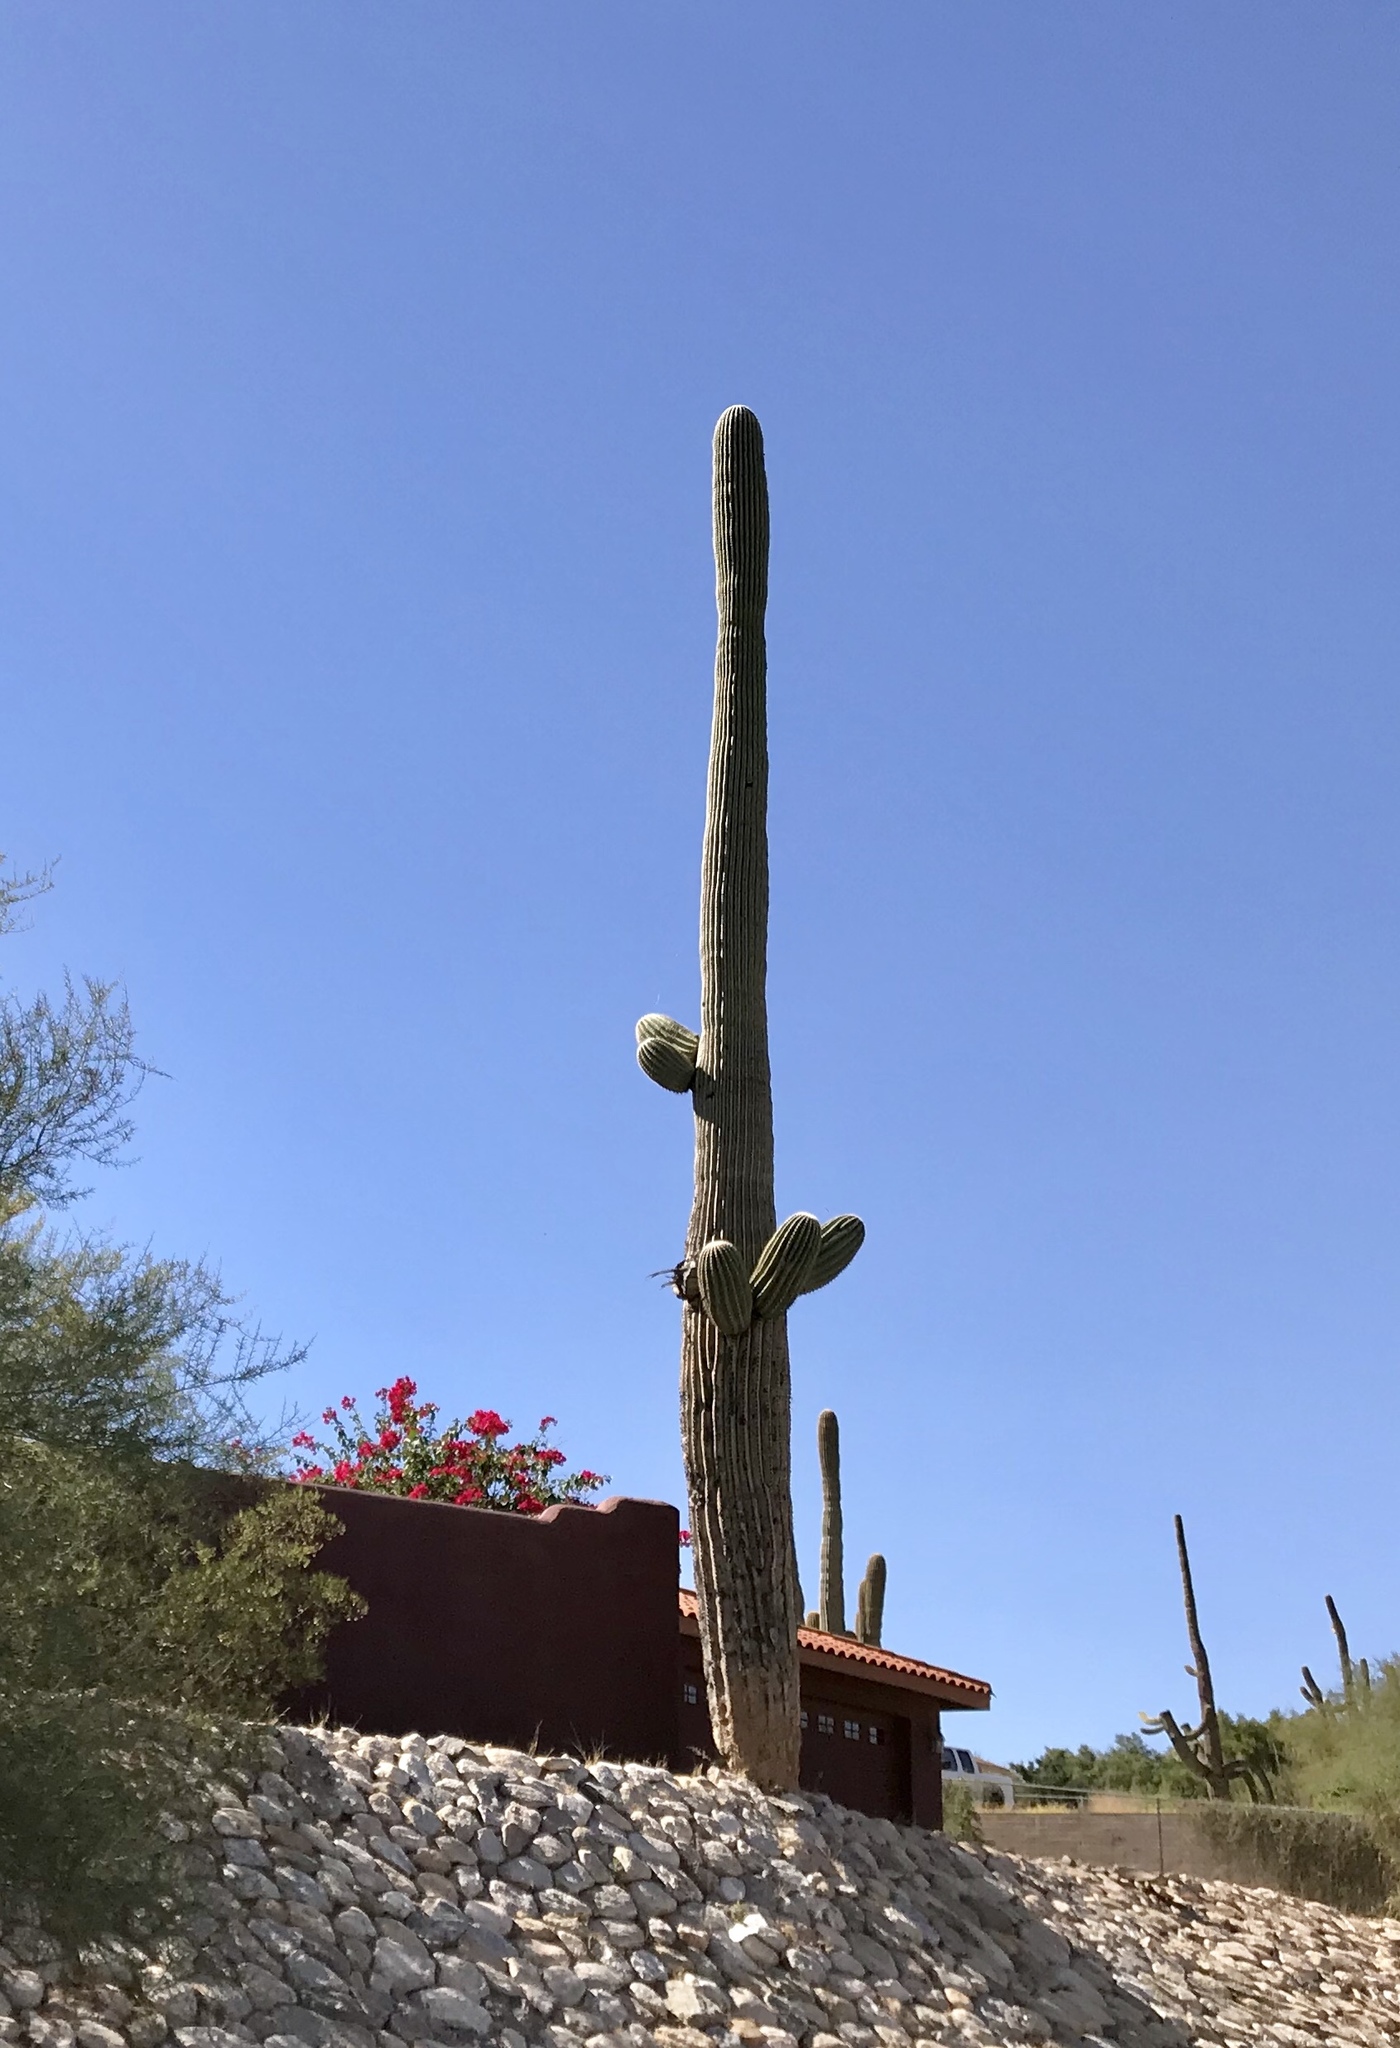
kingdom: Plantae
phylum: Tracheophyta
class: Magnoliopsida
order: Caryophyllales
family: Cactaceae
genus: Carnegiea
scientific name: Carnegiea gigantea
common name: Saguaro
